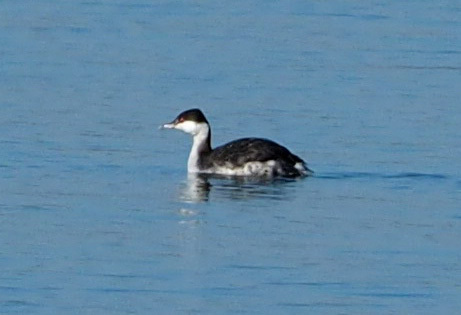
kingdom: Animalia
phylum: Chordata
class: Aves
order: Podicipediformes
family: Podicipedidae
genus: Podiceps
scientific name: Podiceps auritus
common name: Horned grebe
